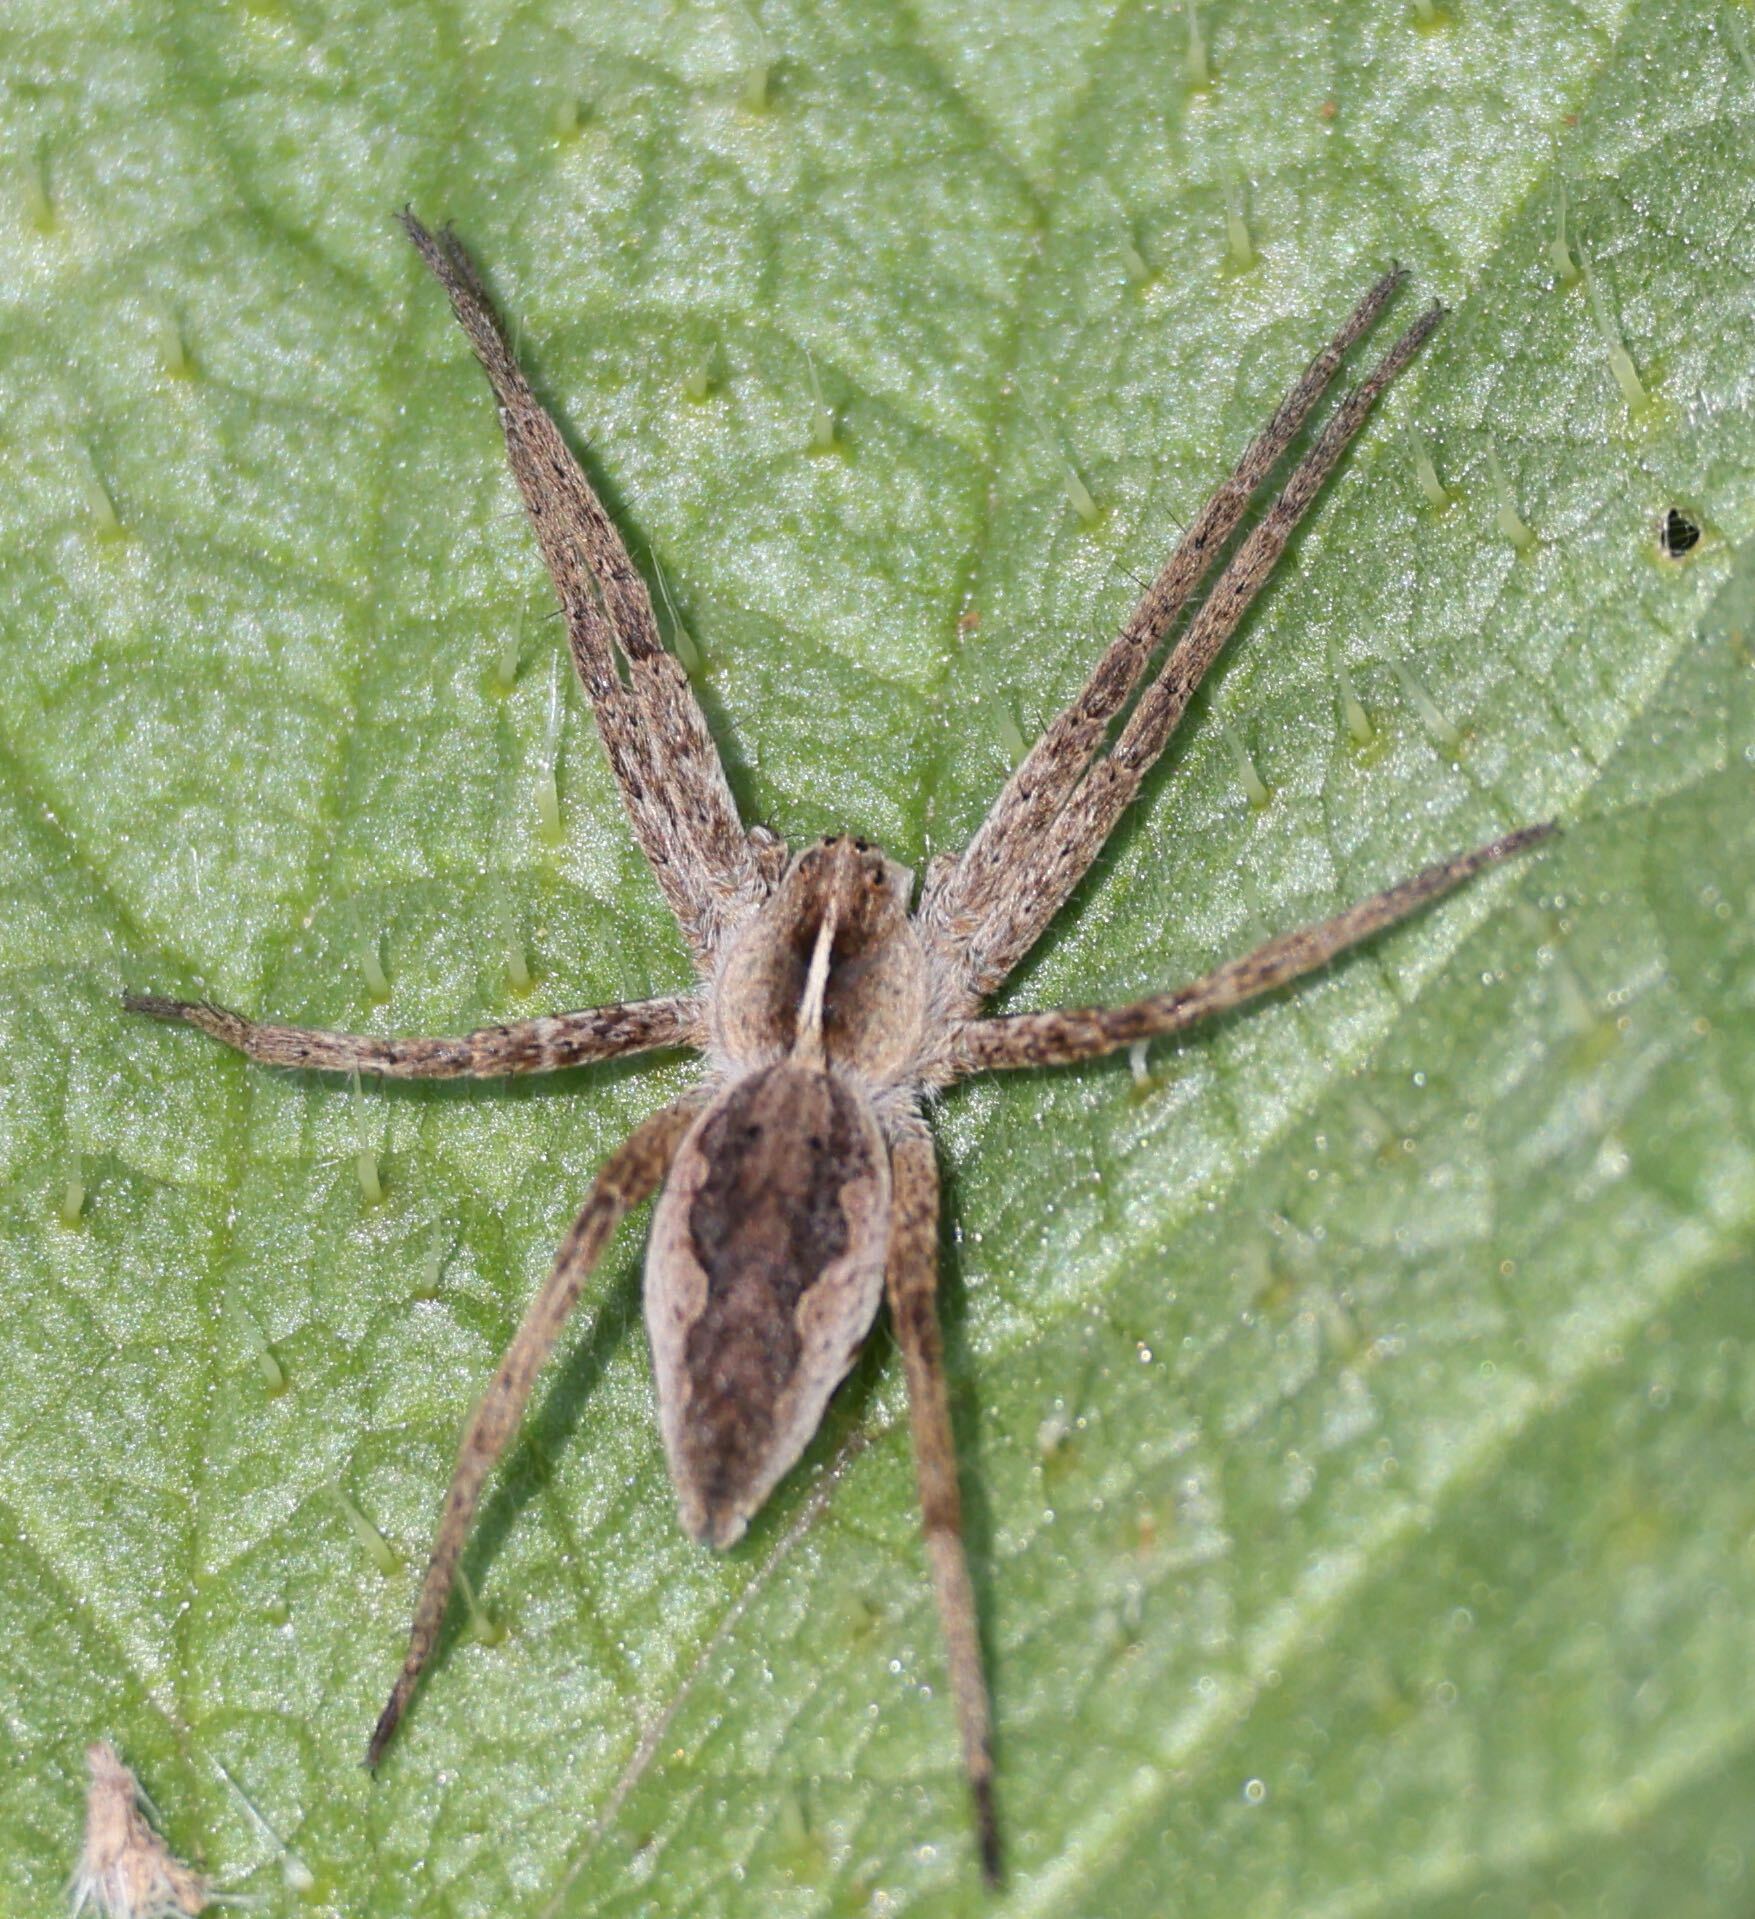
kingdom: Animalia
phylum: Arthropoda
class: Arachnida
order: Araneae
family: Pisauridae
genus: Pisaura
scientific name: Pisaura mirabilis
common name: Tent spider
